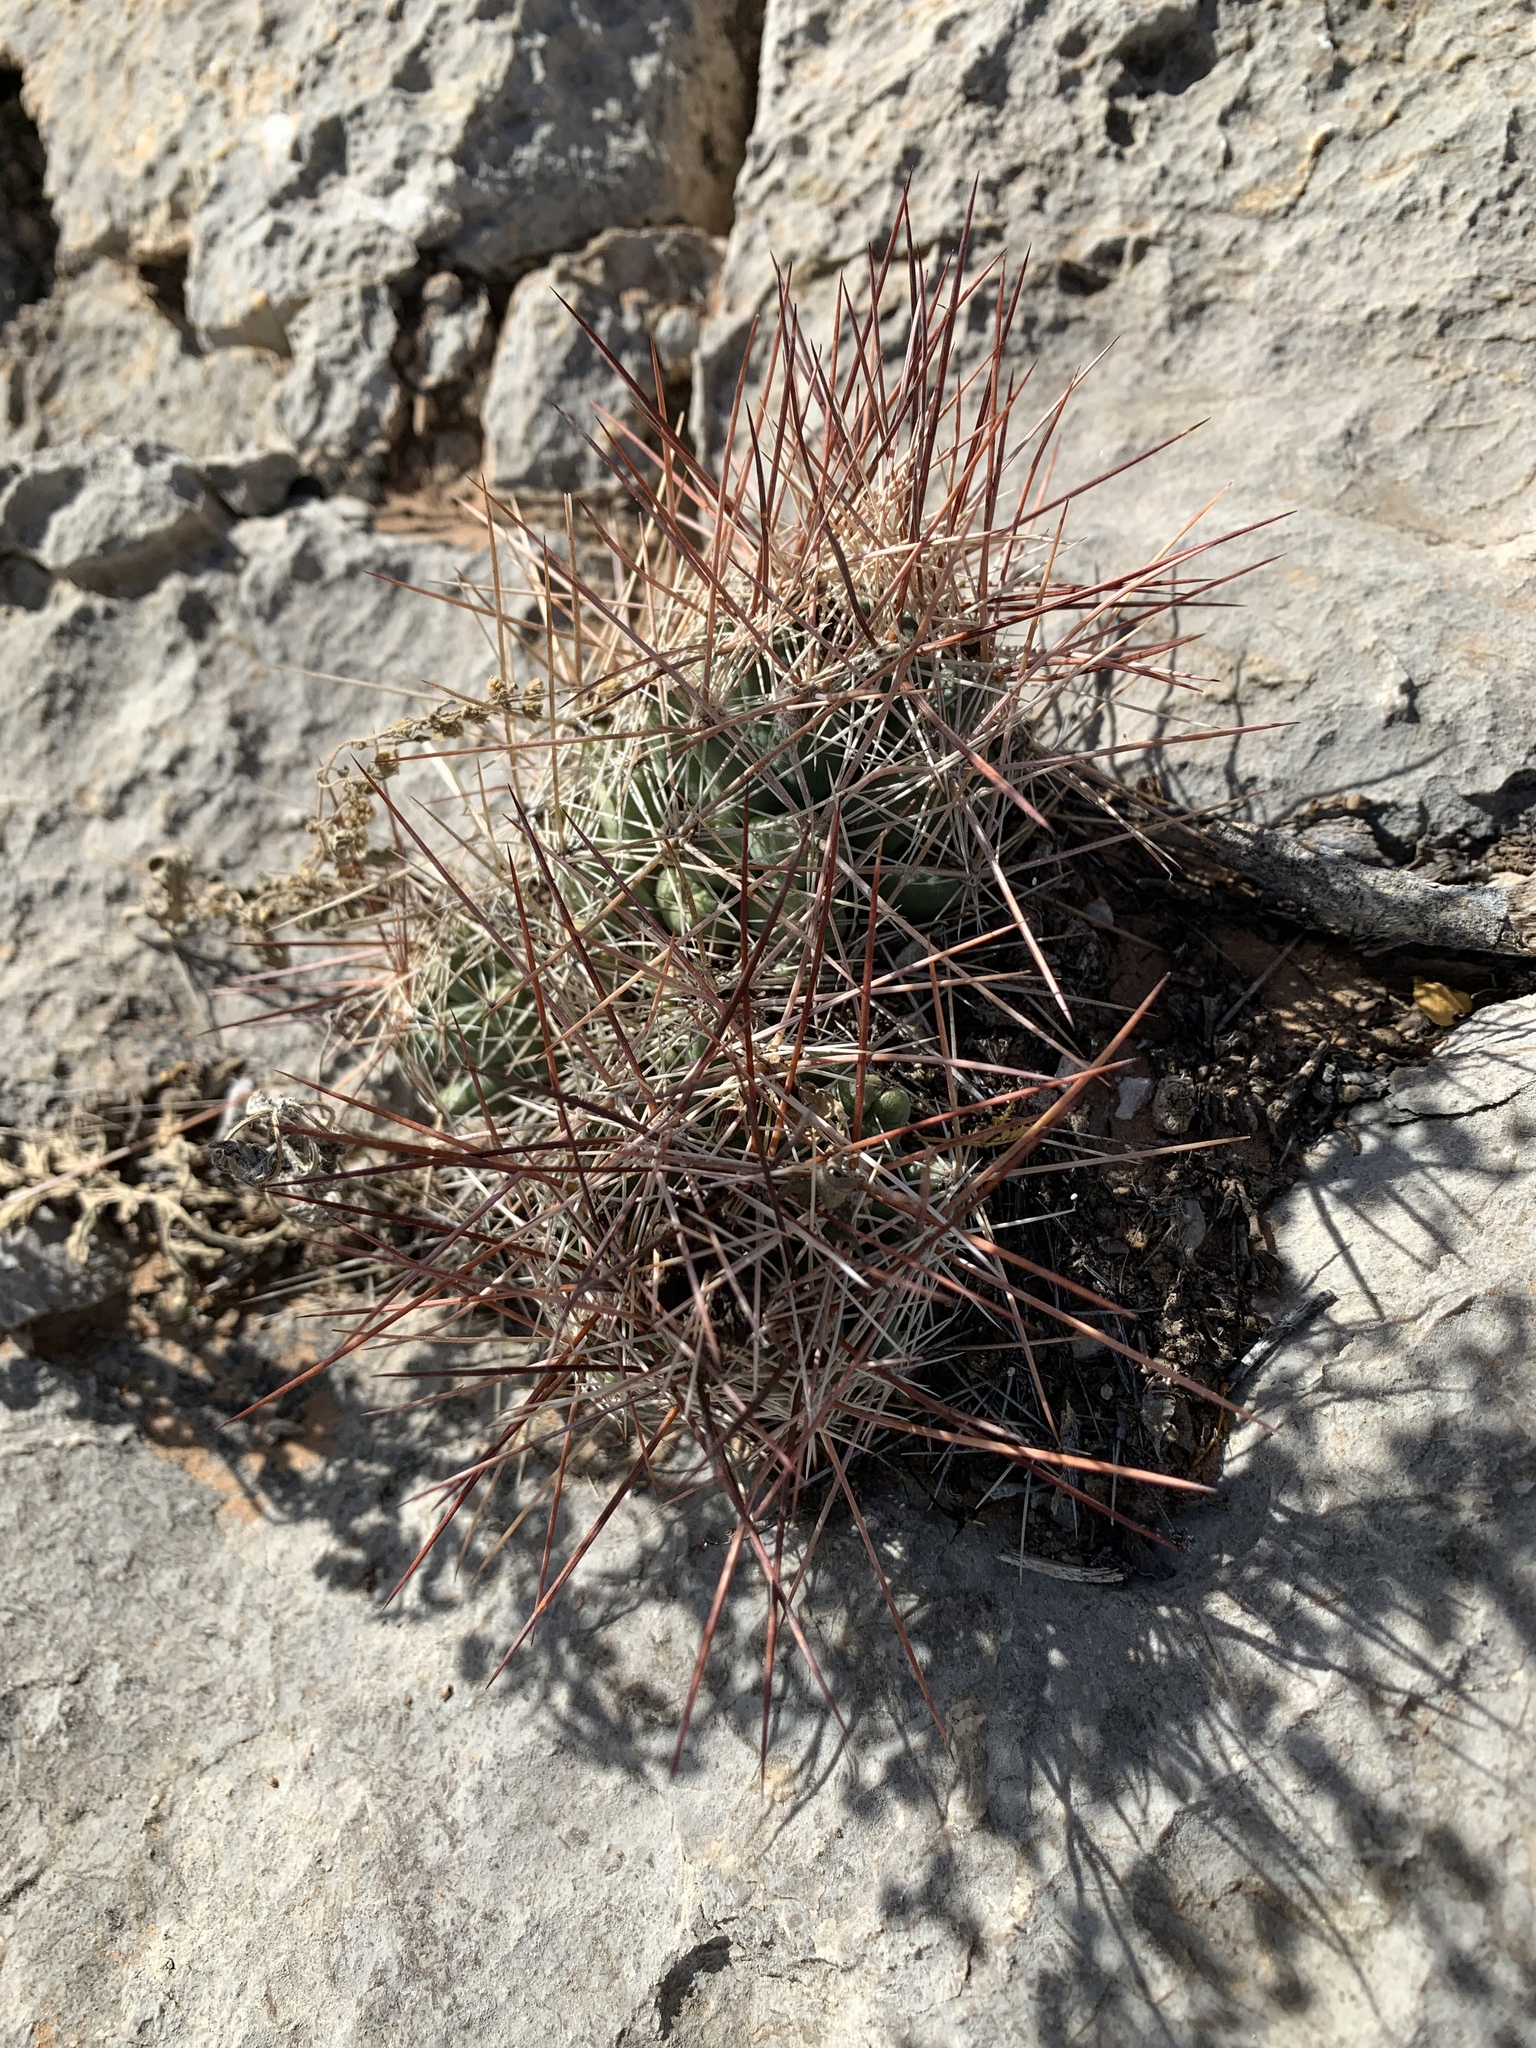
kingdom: Plantae
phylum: Tracheophyta
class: Magnoliopsida
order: Caryophyllales
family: Cactaceae
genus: Coryphantha
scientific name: Coryphantha macromeris
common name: Nipple beehive cactus
